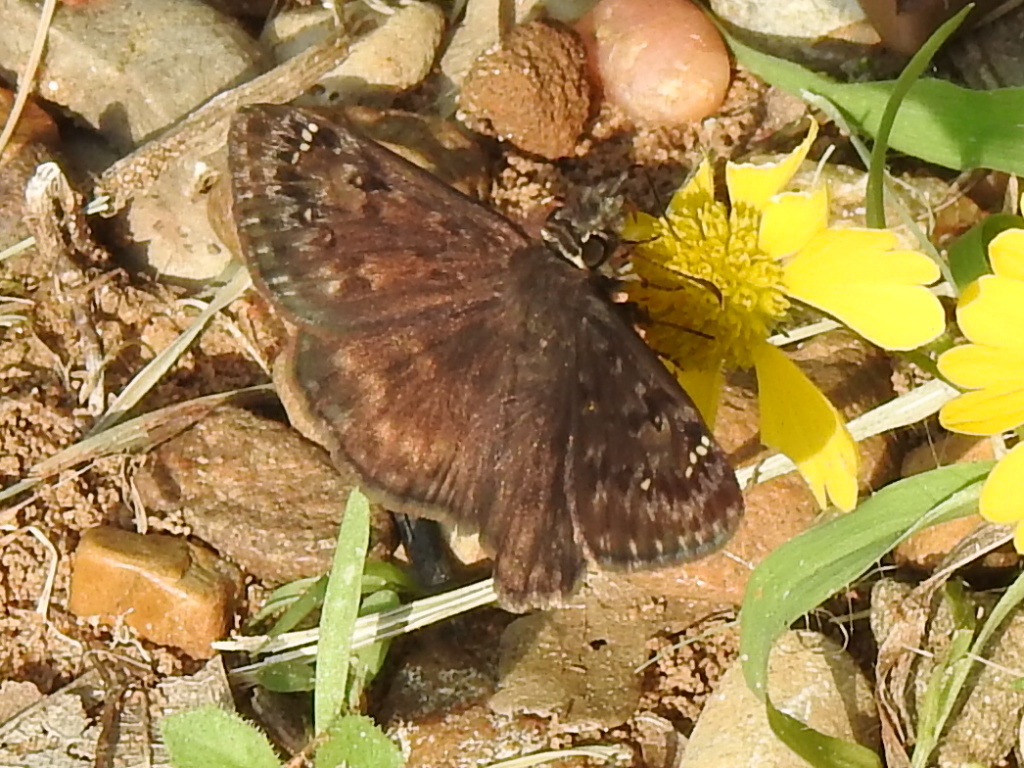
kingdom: Animalia
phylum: Arthropoda
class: Insecta
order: Lepidoptera
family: Hesperiidae
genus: Erynnis
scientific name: Erynnis horatius
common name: Horace's duskywing
